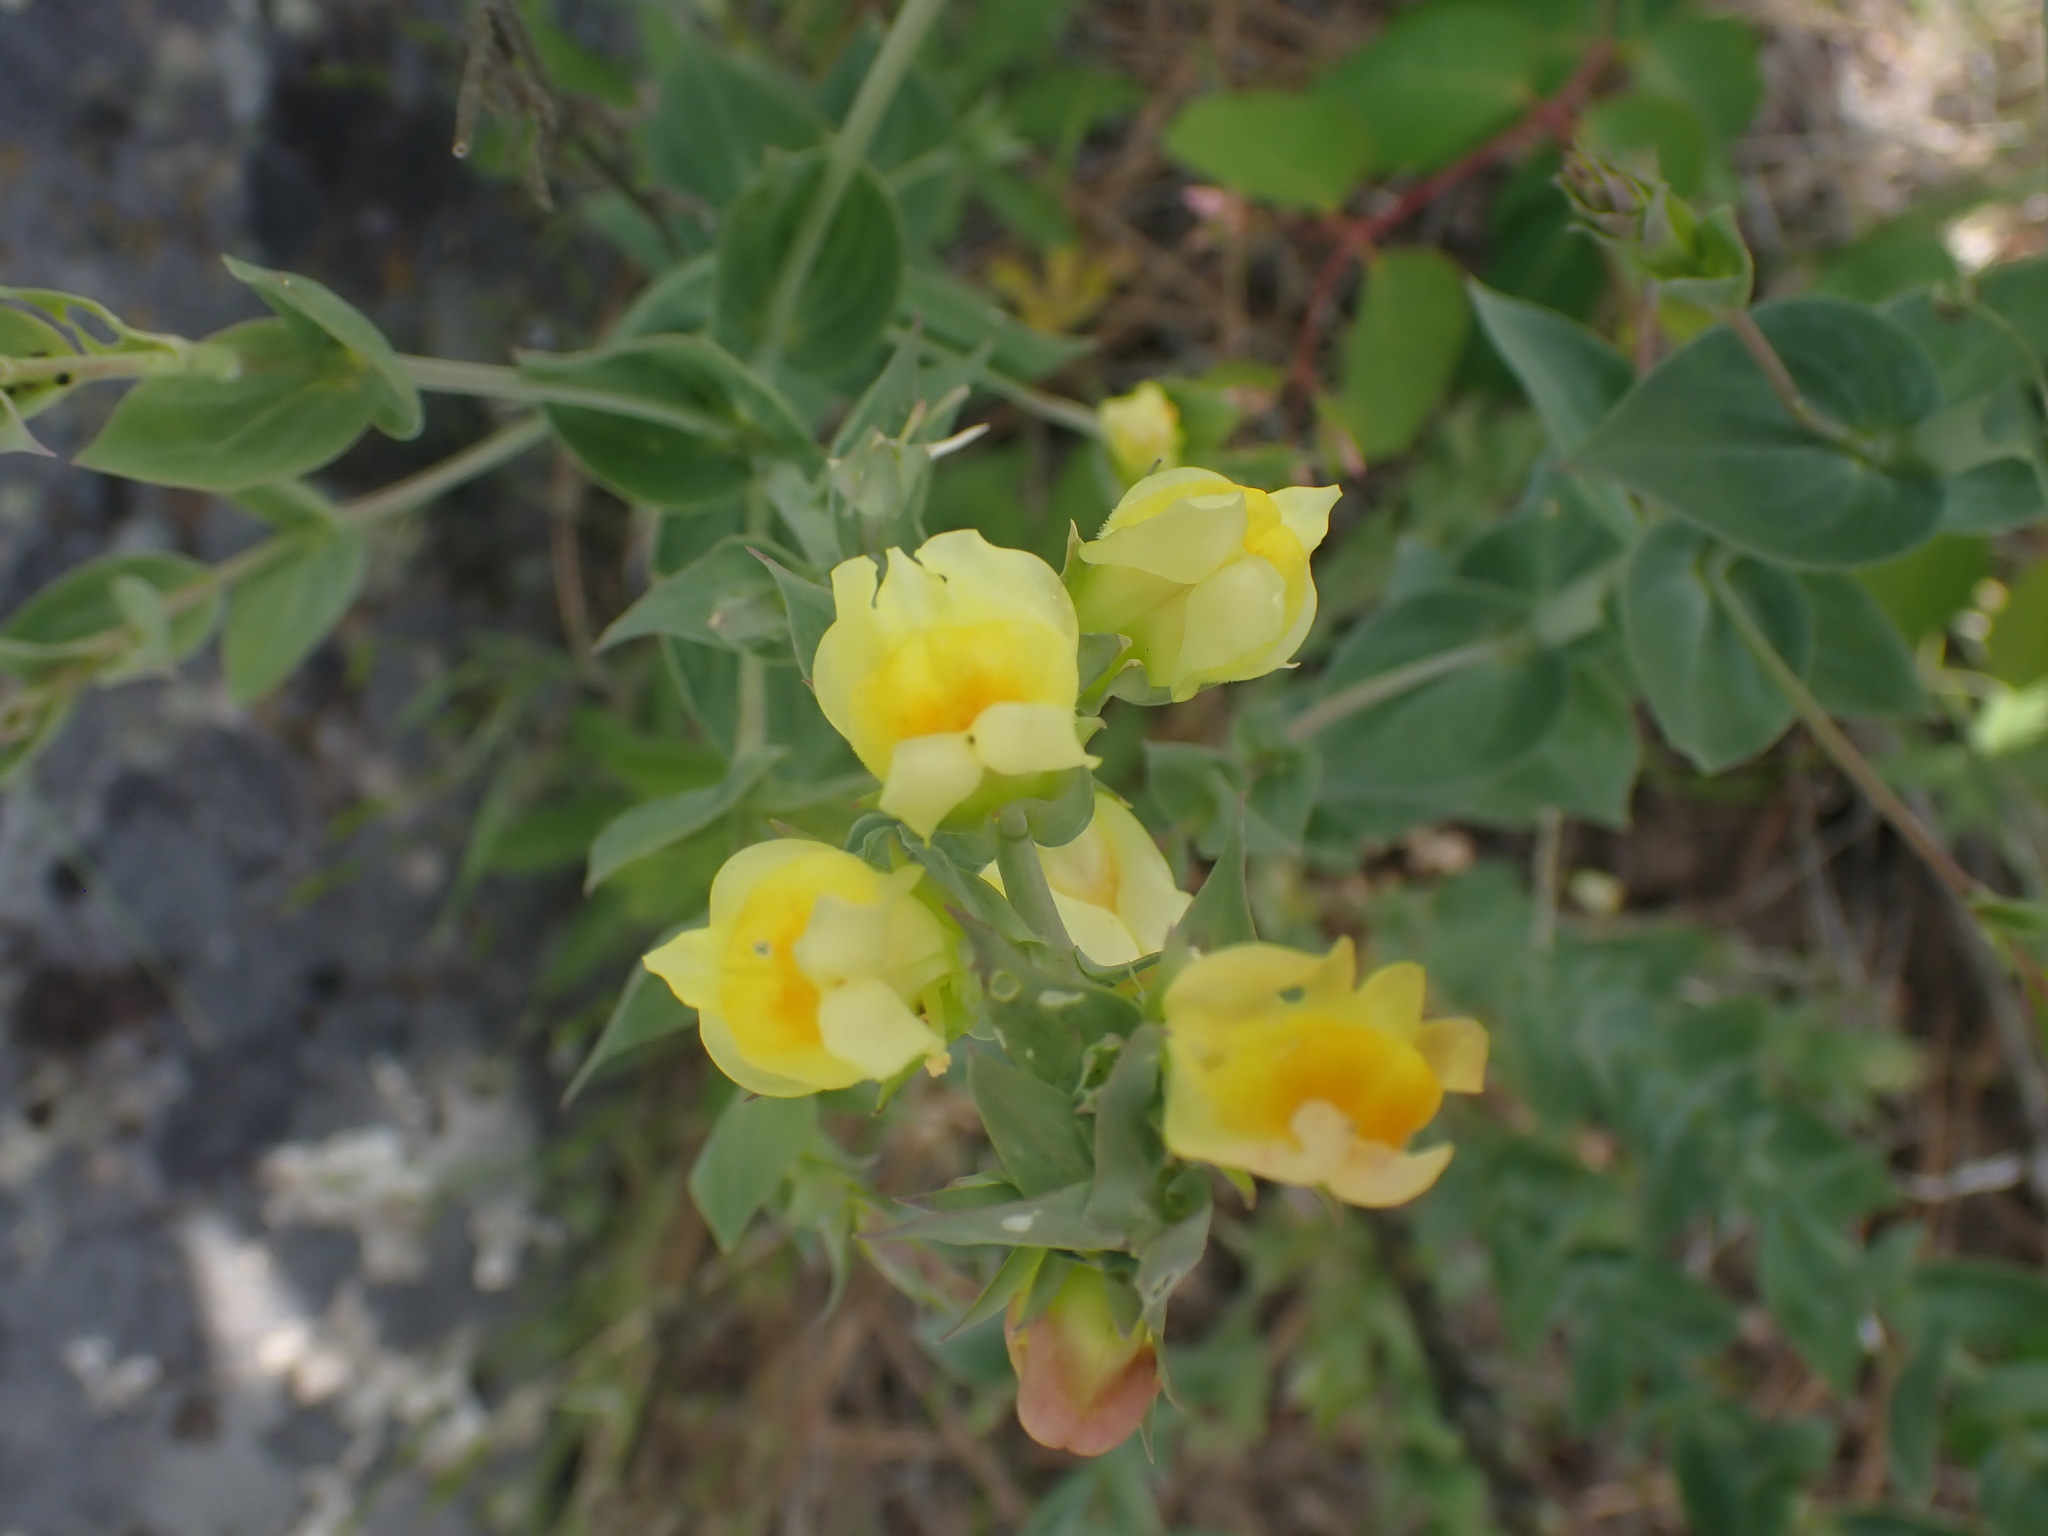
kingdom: Plantae
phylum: Tracheophyta
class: Magnoliopsida
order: Lamiales
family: Plantaginaceae
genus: Linaria
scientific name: Linaria dalmatica
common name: Dalmatian toadflax
